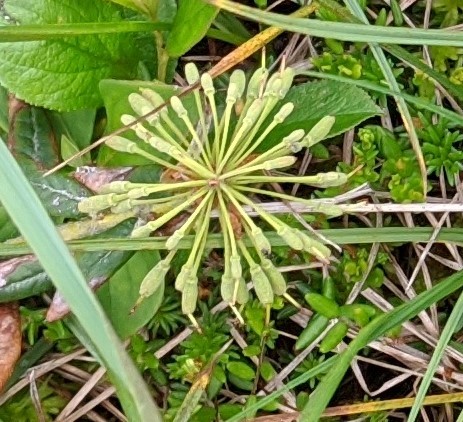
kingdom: Plantae
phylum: Tracheophyta
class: Magnoliopsida
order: Ericales
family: Ericaceae
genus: Rhododendron
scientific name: Rhododendron groenlandicum
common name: Bog labrador tea
